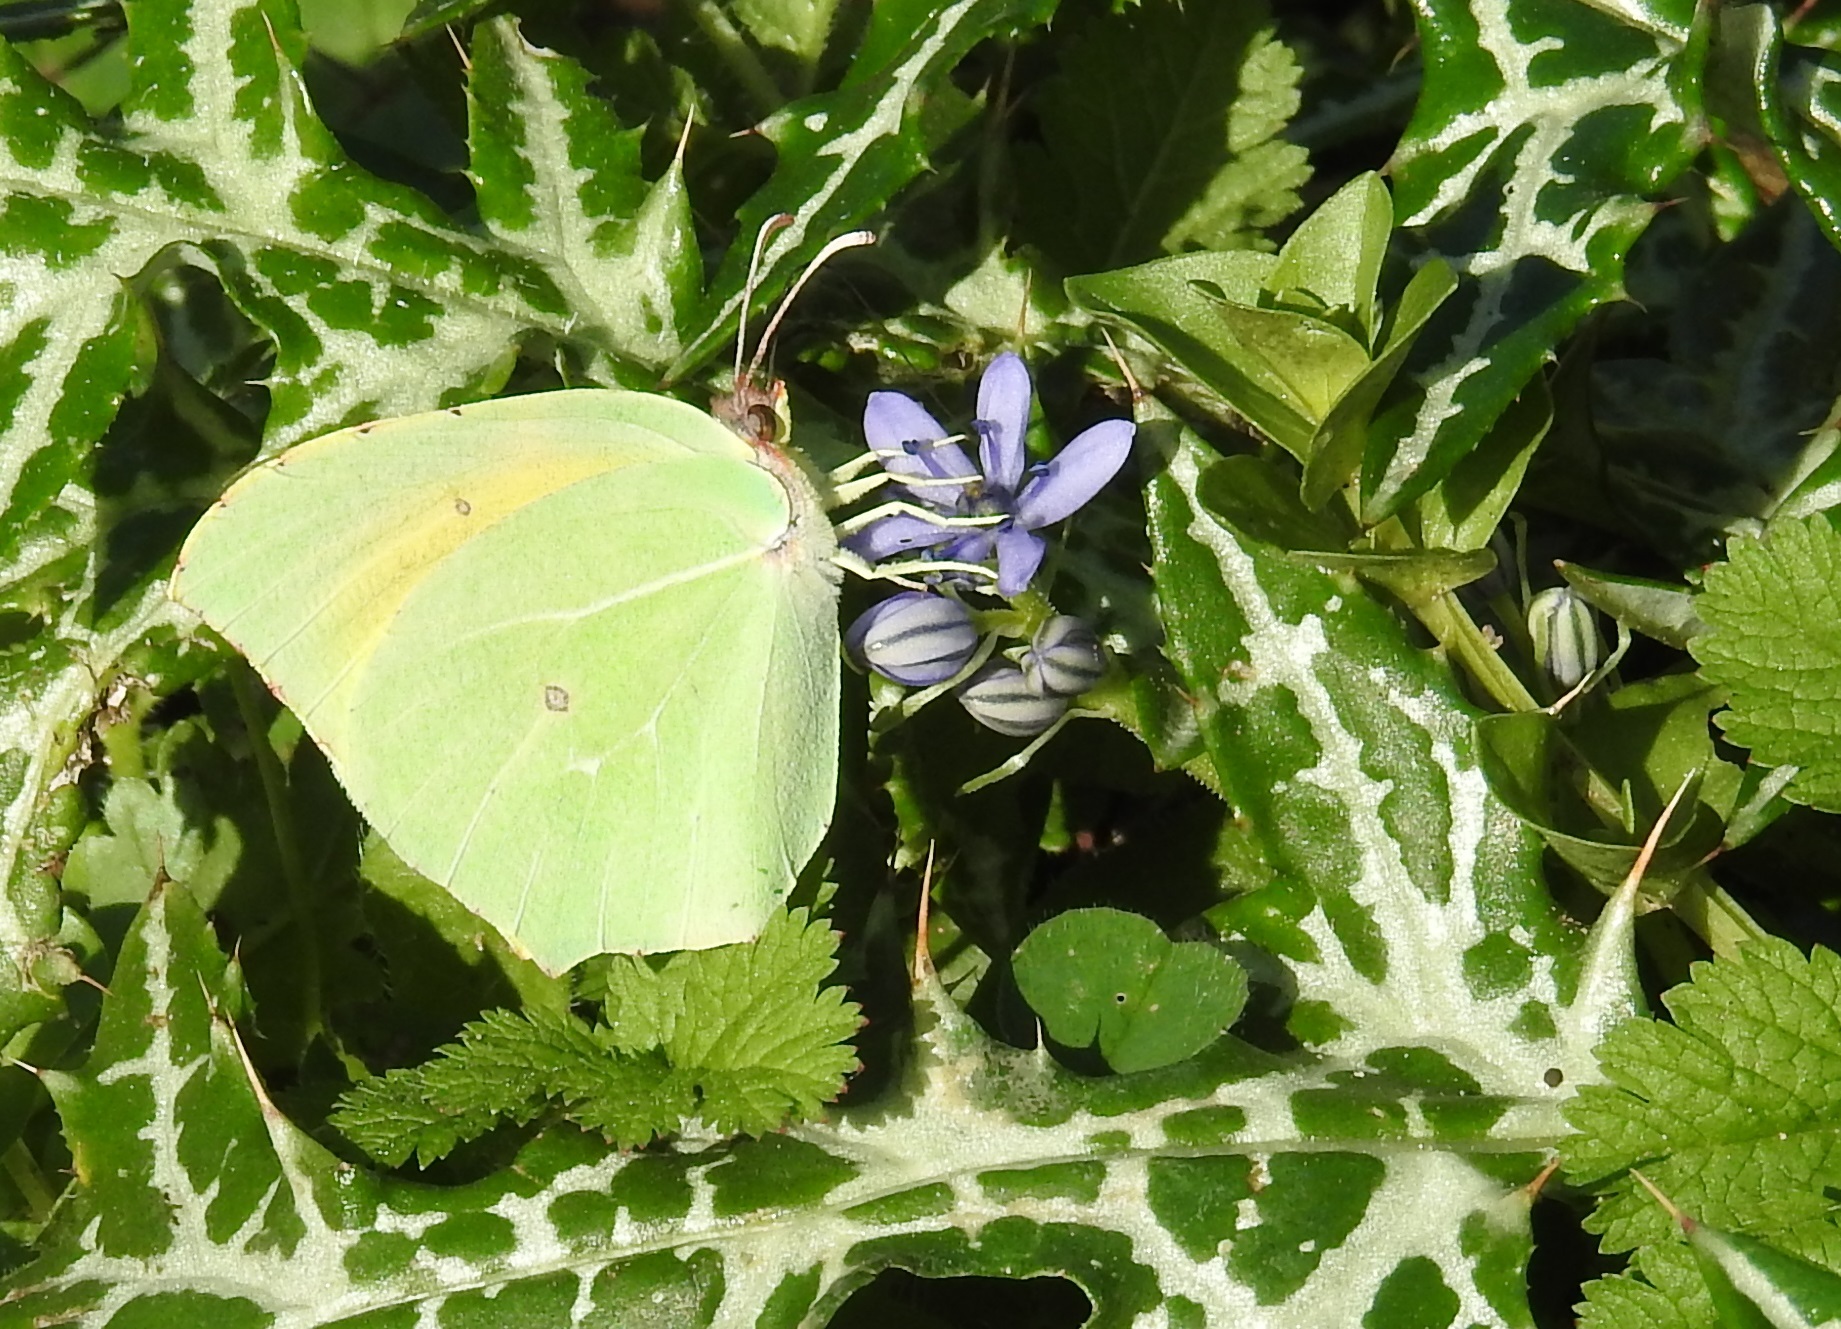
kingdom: Animalia
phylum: Arthropoda
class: Insecta
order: Lepidoptera
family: Pieridae
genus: Gonepteryx
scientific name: Gonepteryx cleopatra
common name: Cleopatra
